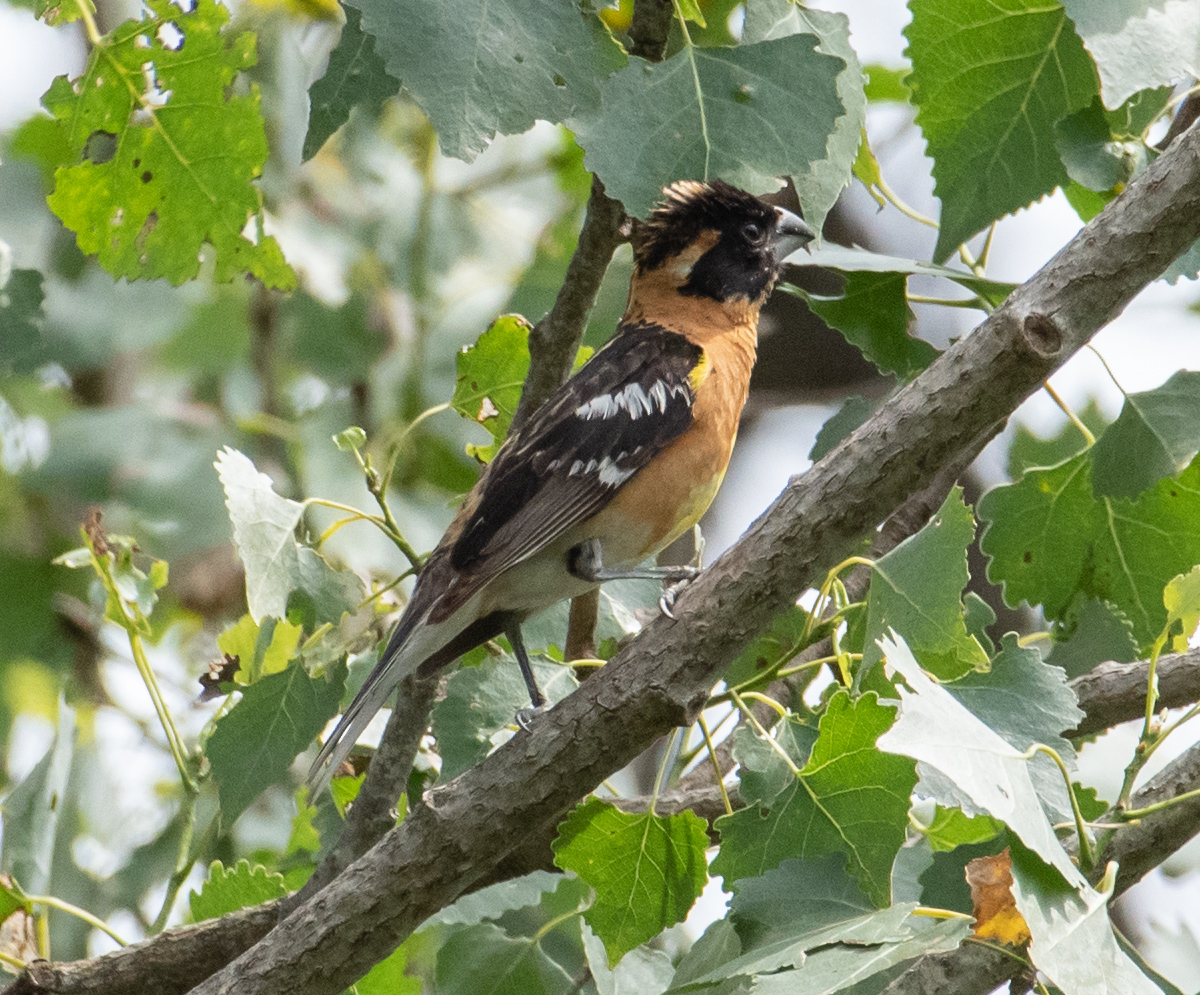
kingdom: Animalia
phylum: Chordata
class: Aves
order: Passeriformes
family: Cardinalidae
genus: Pheucticus
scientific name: Pheucticus melanocephalus
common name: Black-headed grosbeak
